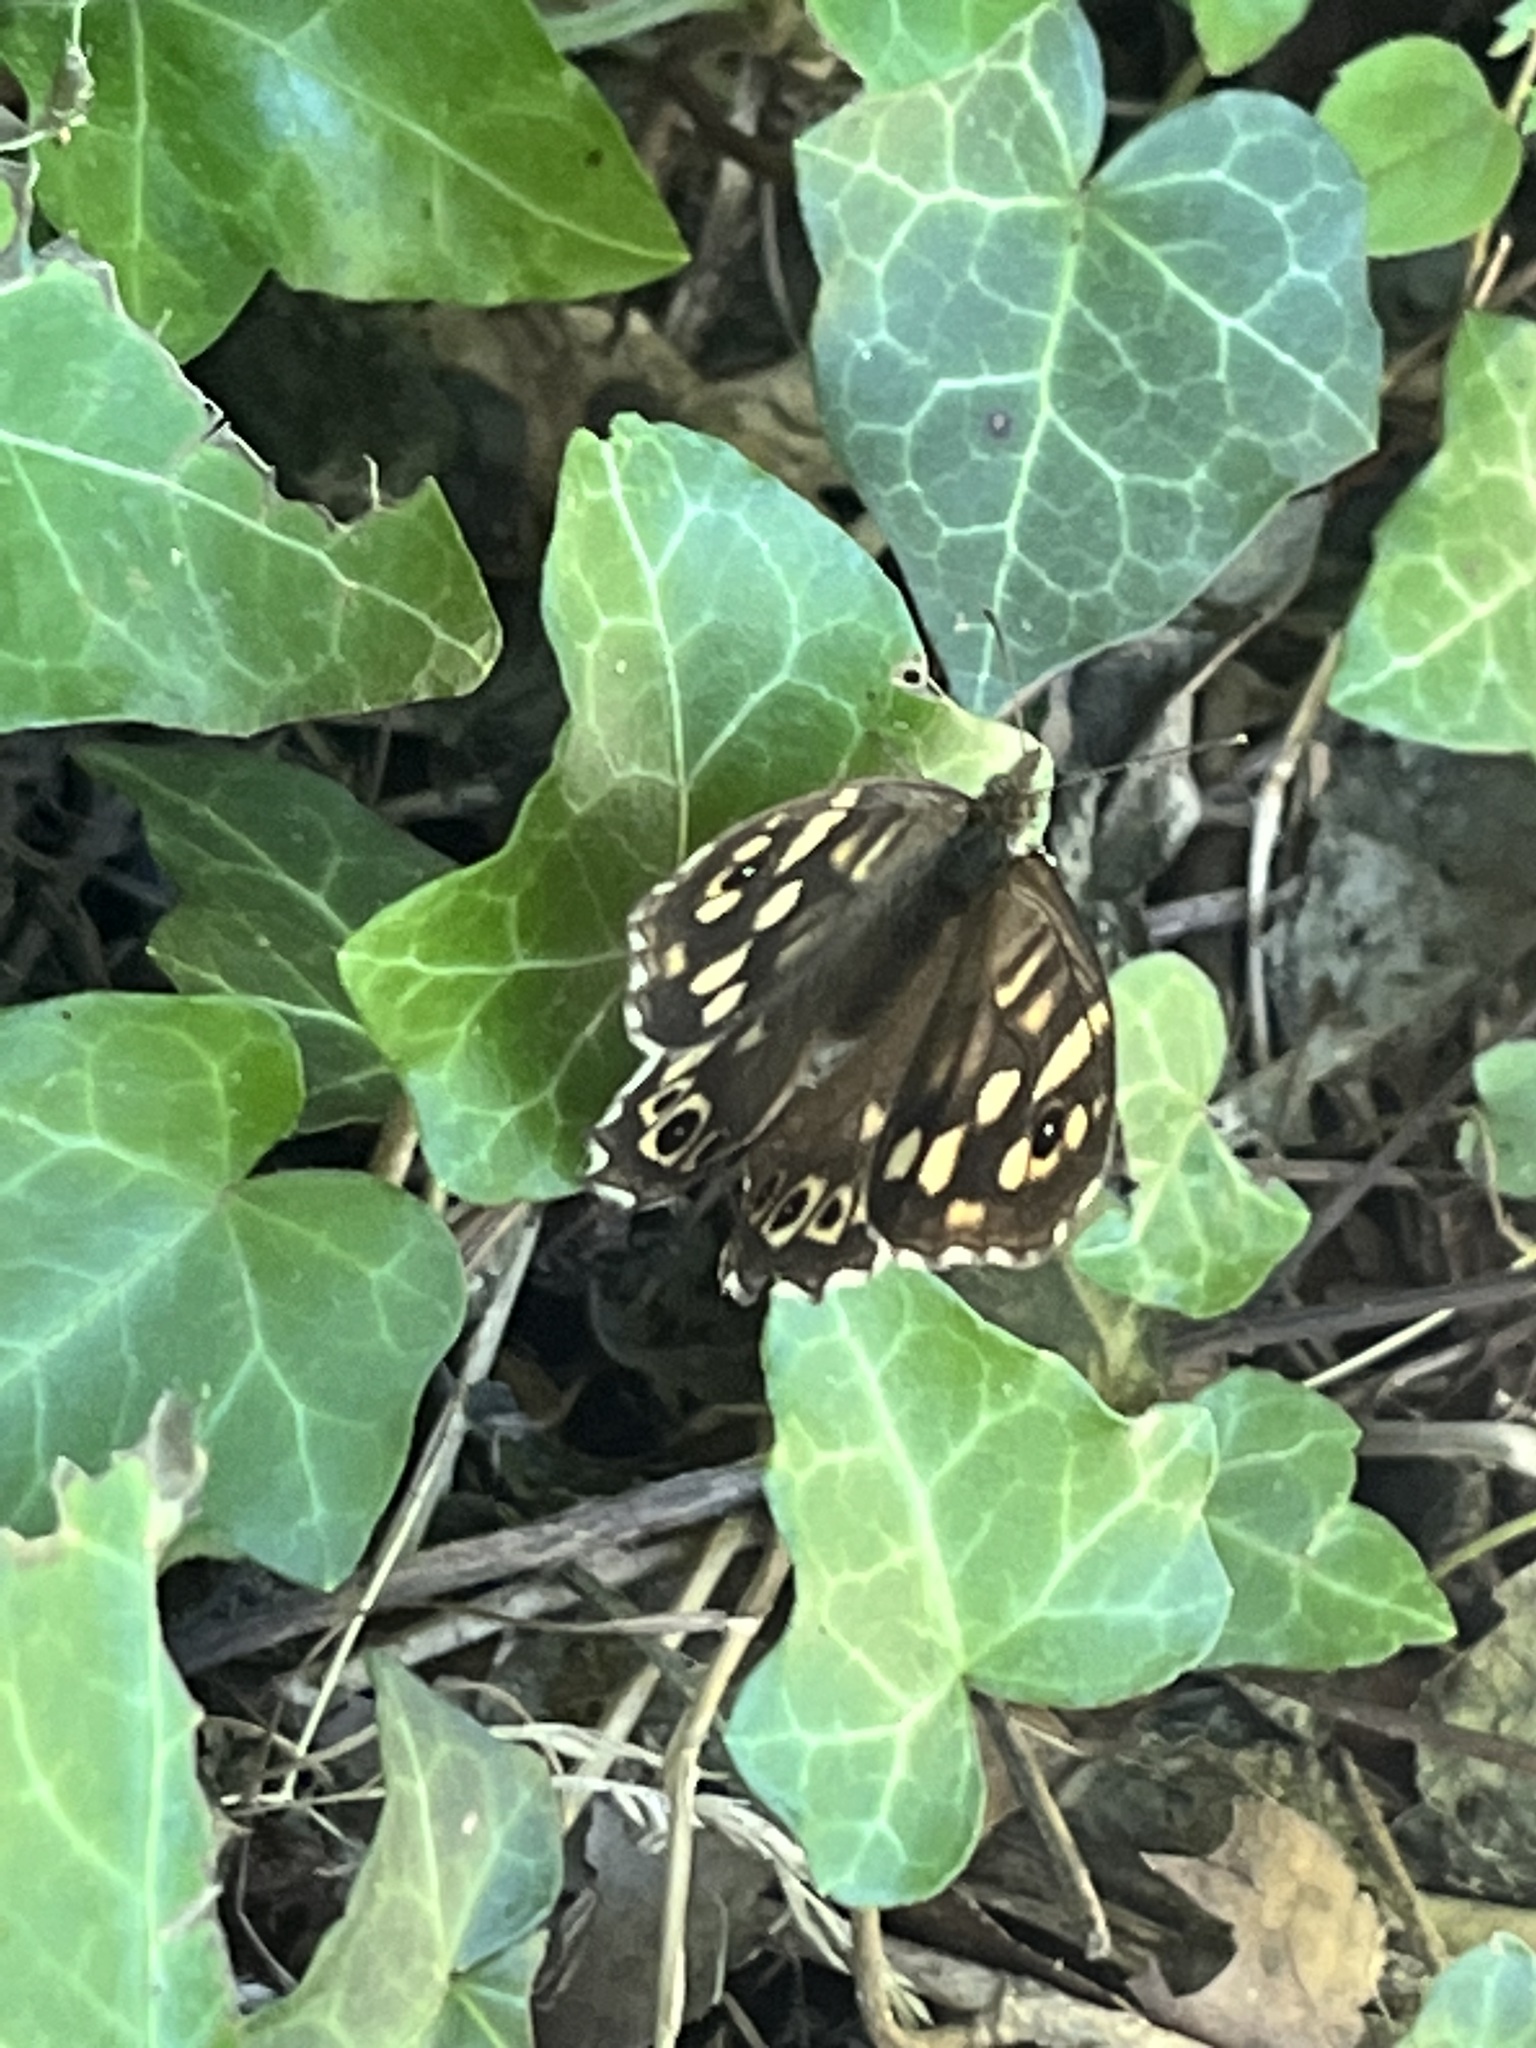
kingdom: Animalia
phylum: Arthropoda
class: Insecta
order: Lepidoptera
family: Nymphalidae
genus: Pararge
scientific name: Pararge aegeria
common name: Speckled wood
